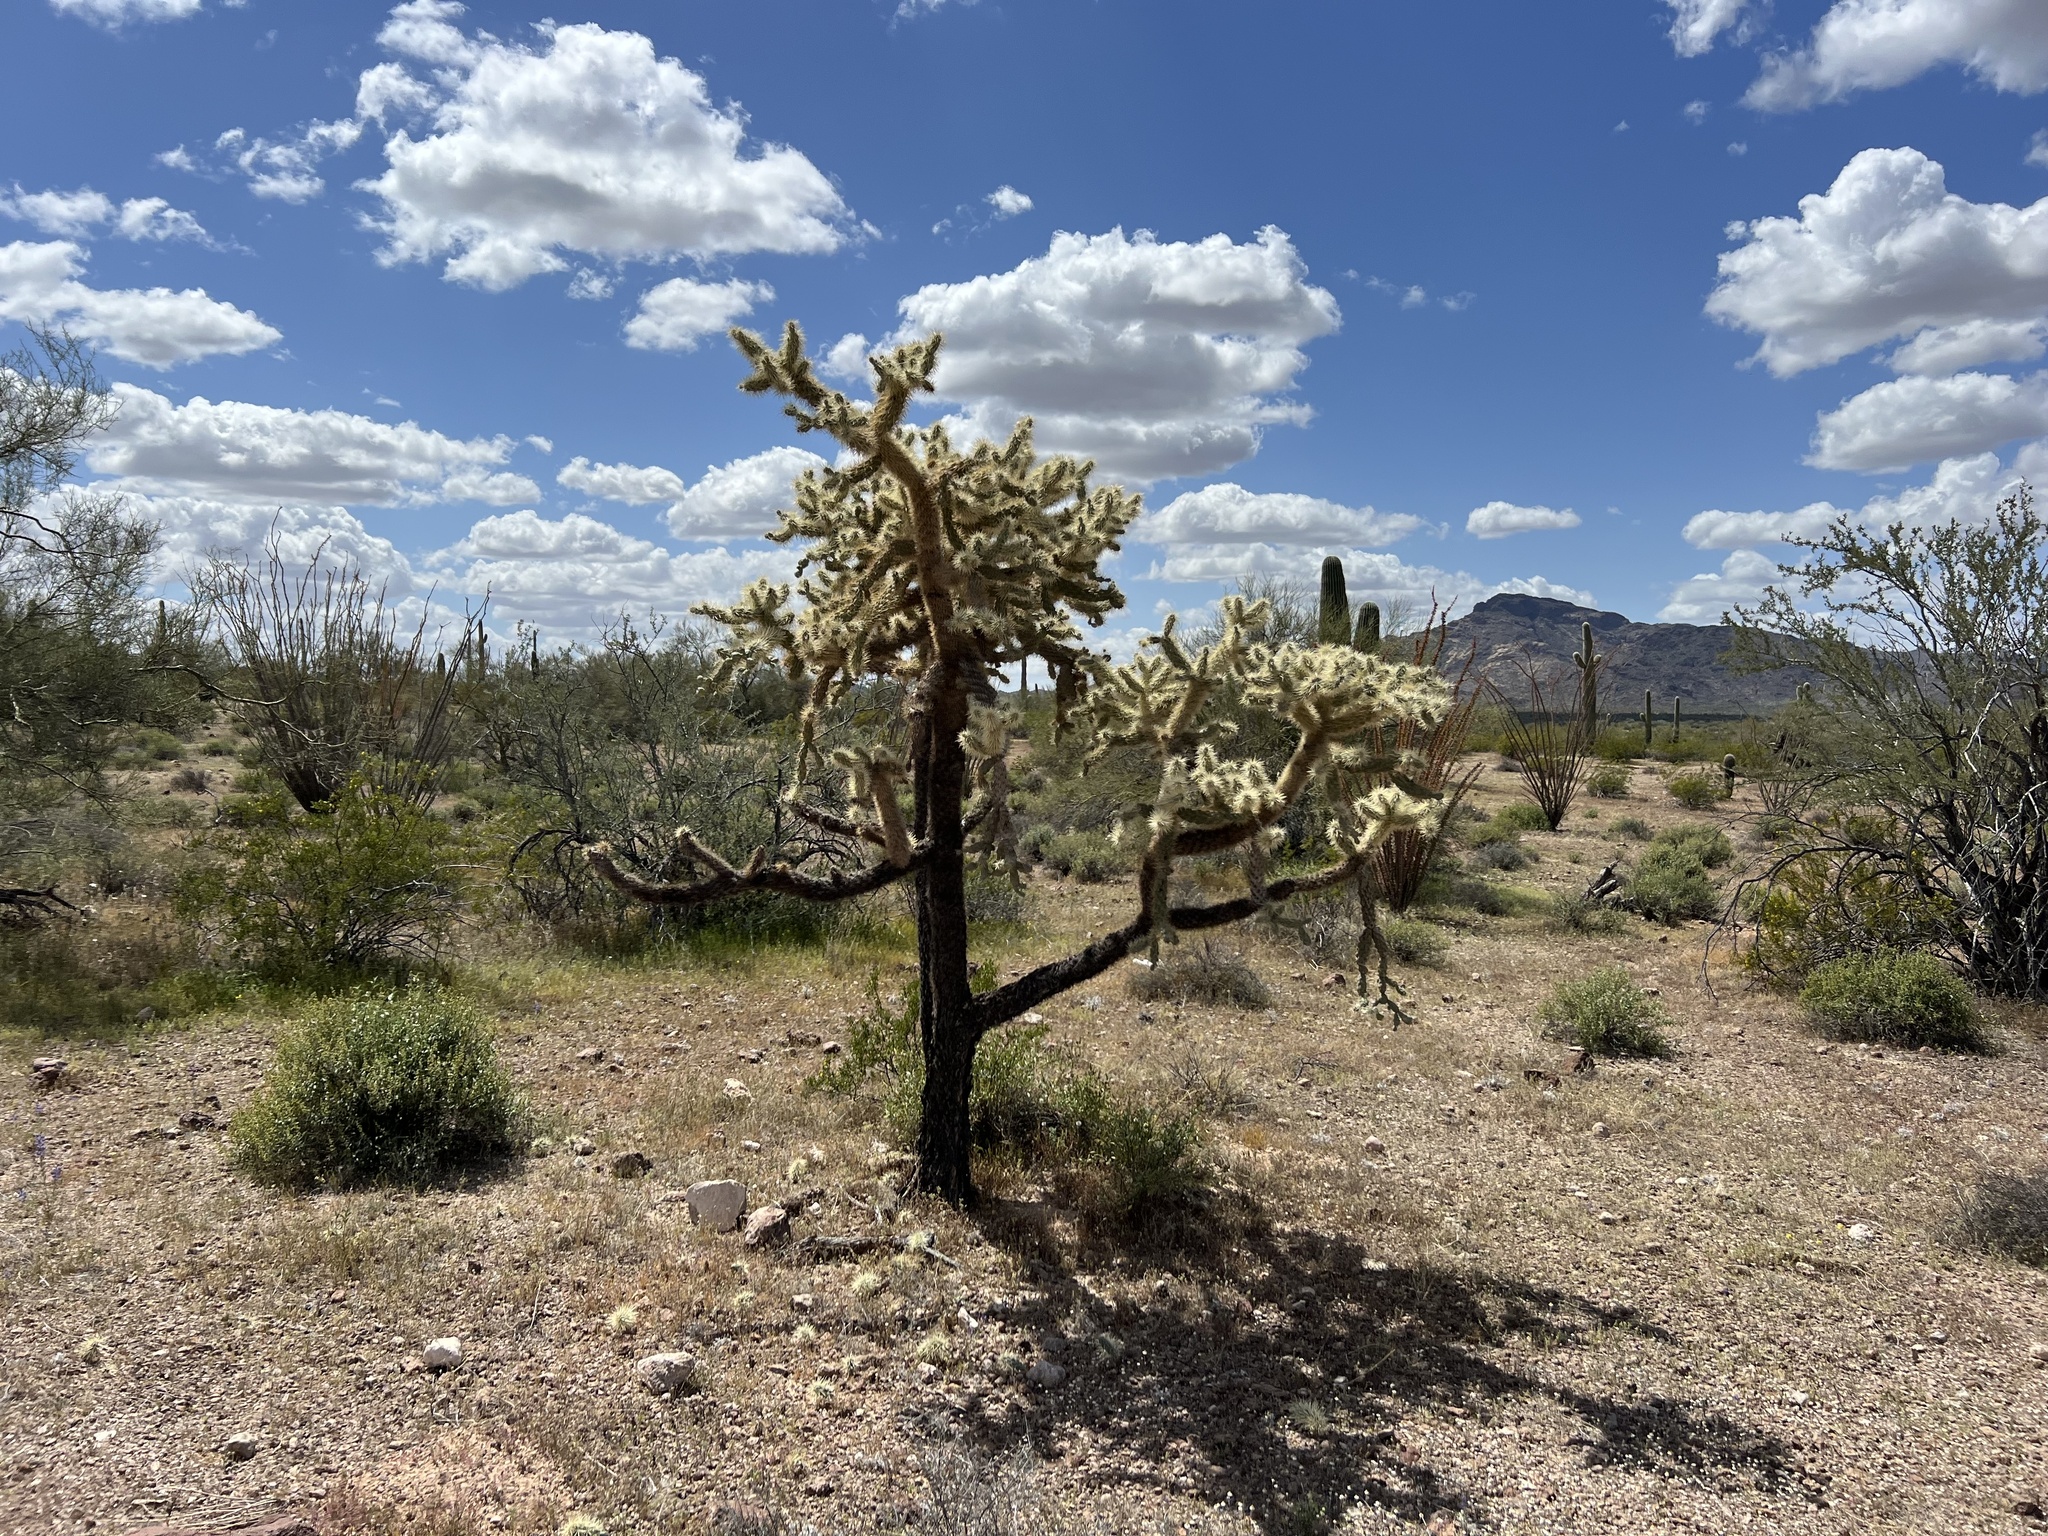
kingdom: Plantae
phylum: Tracheophyta
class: Magnoliopsida
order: Caryophyllales
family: Cactaceae
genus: Cylindropuntia
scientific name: Cylindropuntia fulgida
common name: Jumping cholla
